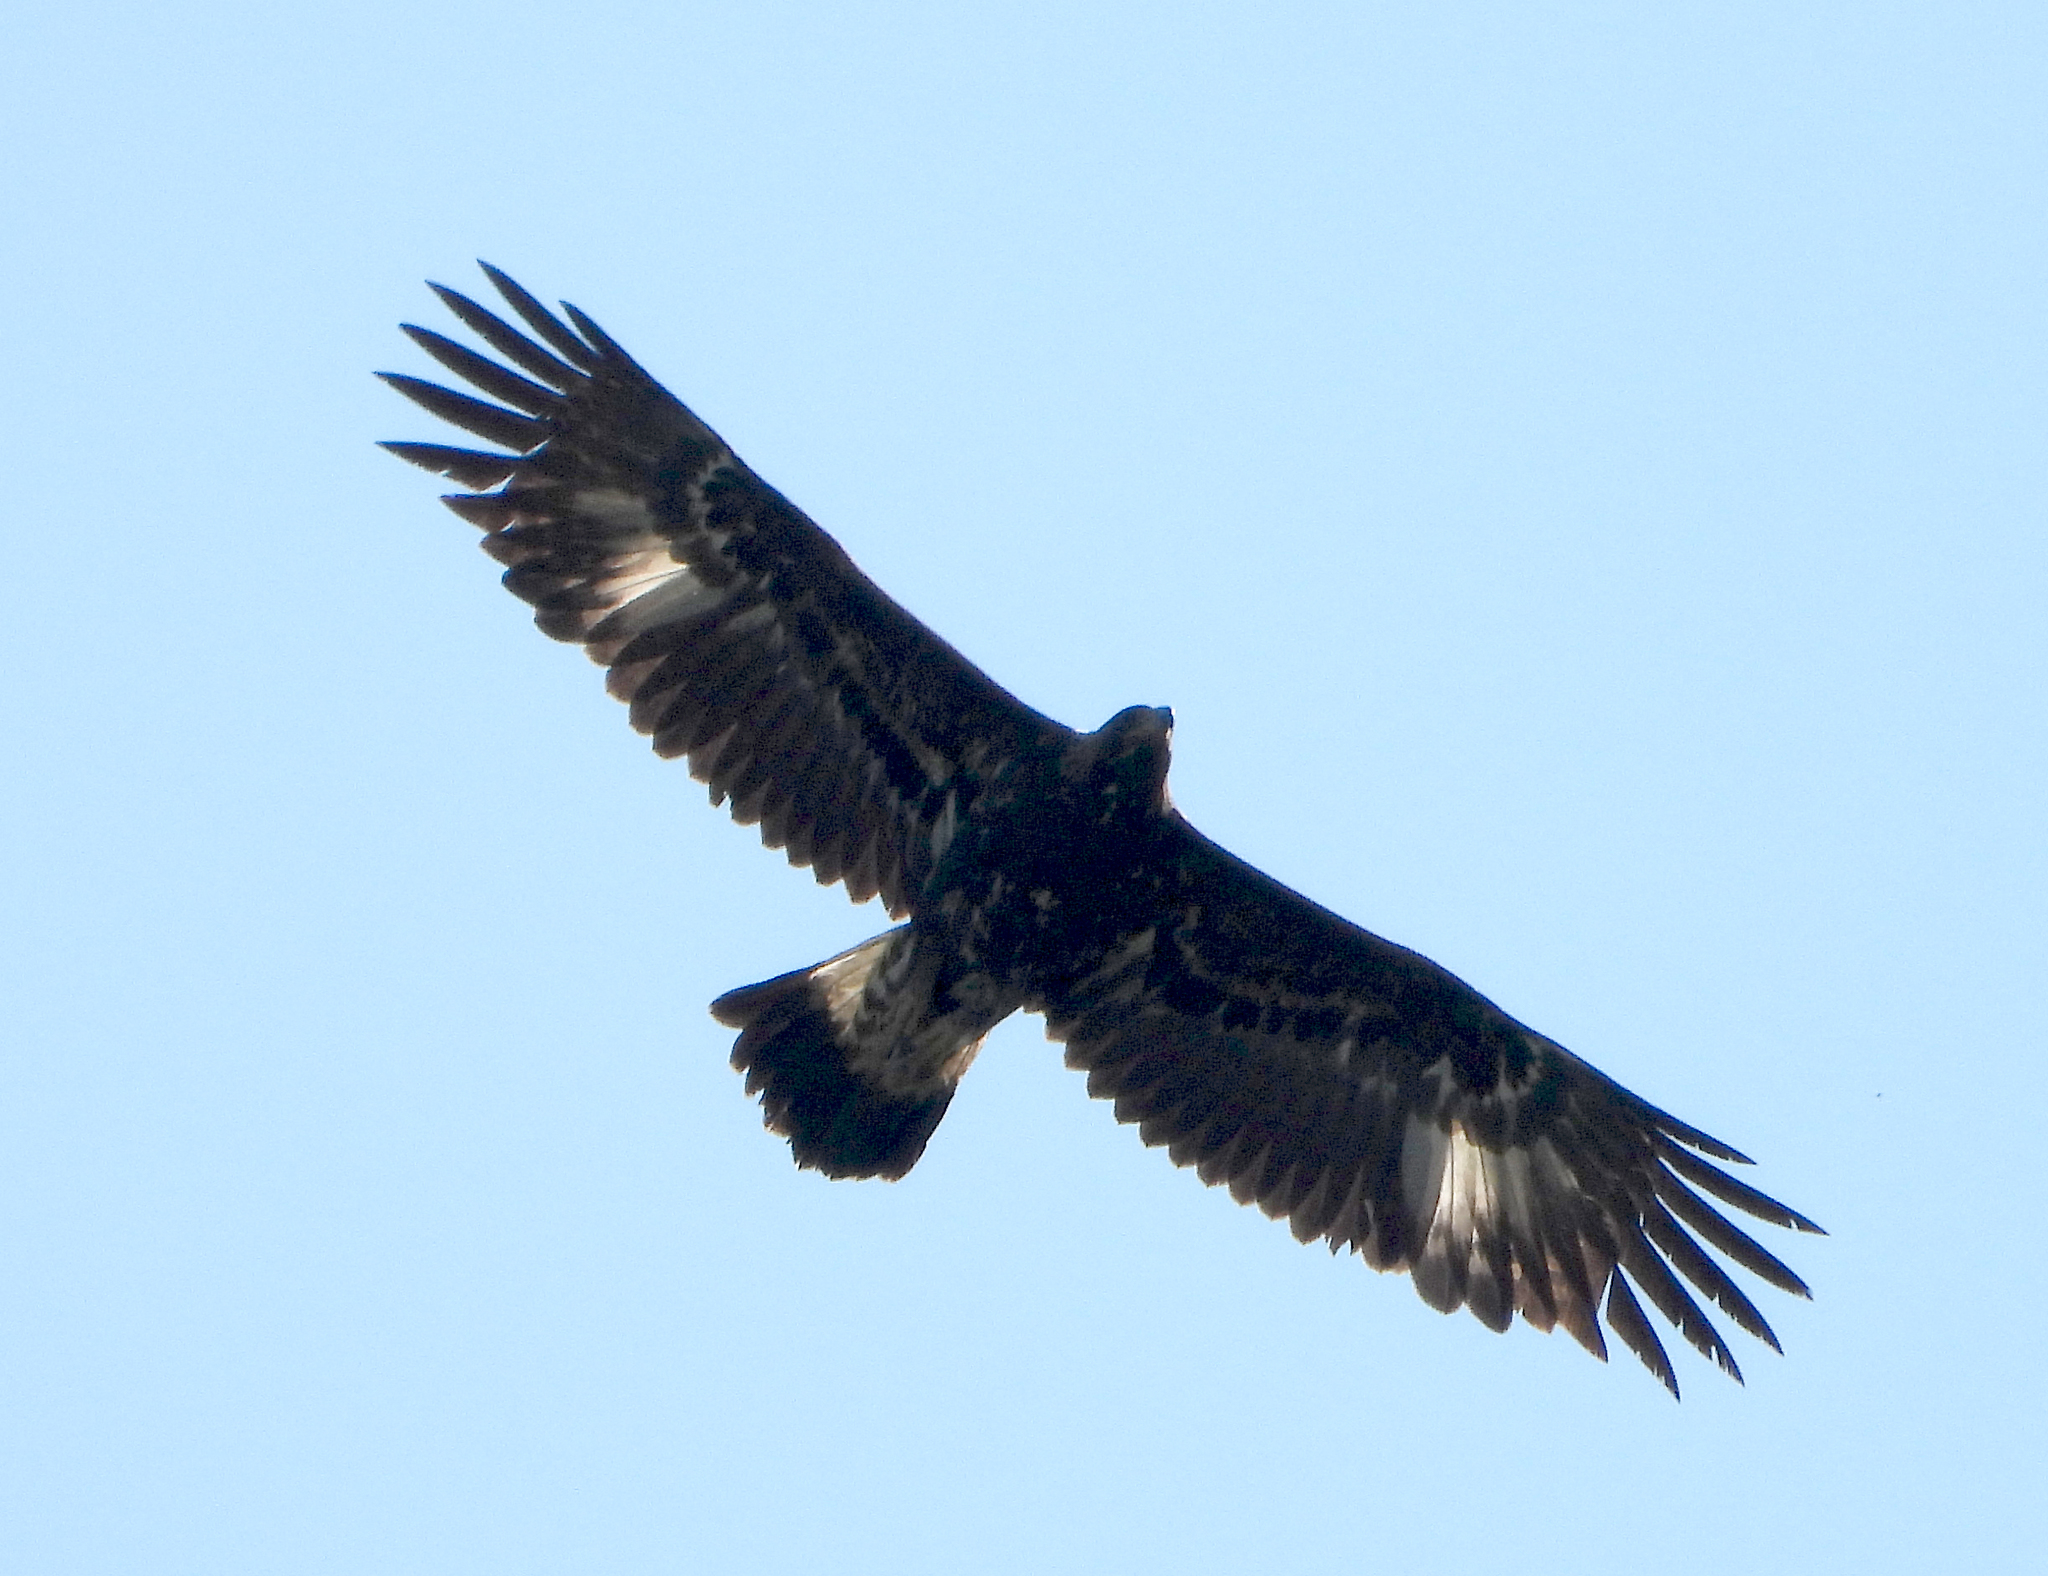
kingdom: Animalia
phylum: Chordata
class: Aves
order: Accipitriformes
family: Accipitridae
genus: Aquila
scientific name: Aquila chrysaetos
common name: Golden eagle
